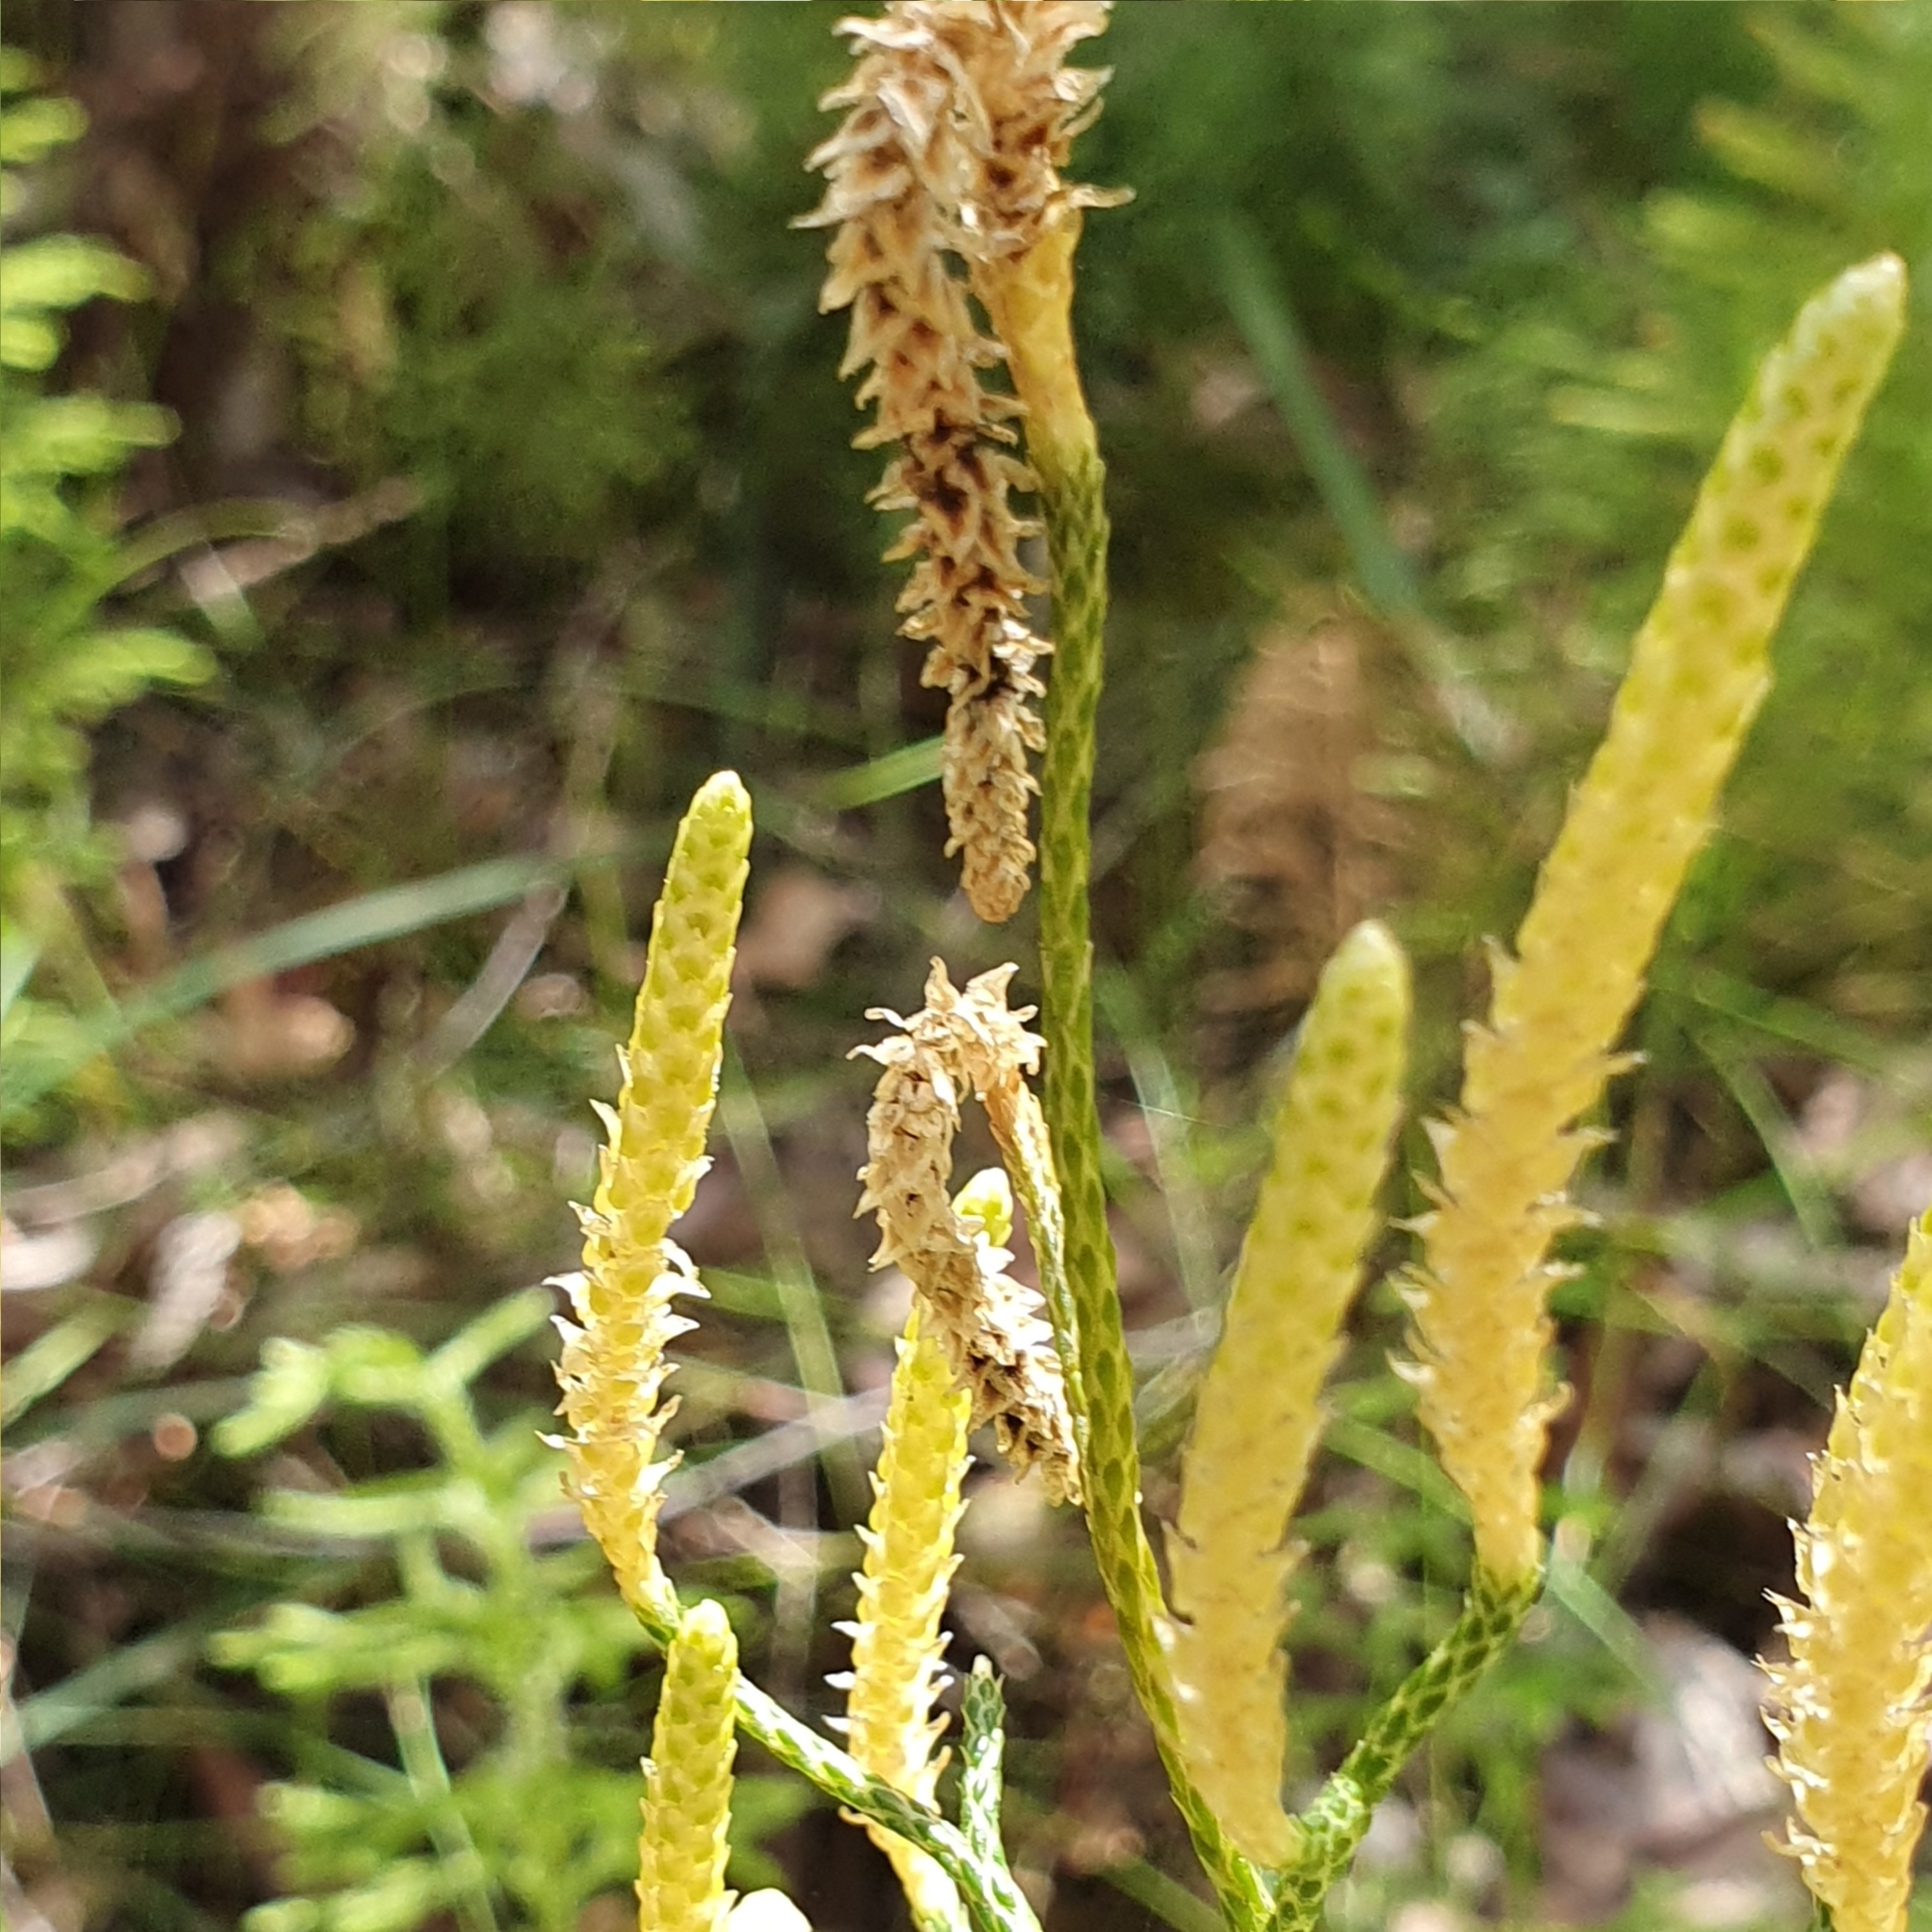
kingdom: Plantae
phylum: Tracheophyta
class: Lycopodiopsida
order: Lycopodiales
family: Lycopodiaceae
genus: Pseudolycopodium
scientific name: Pseudolycopodium densum
